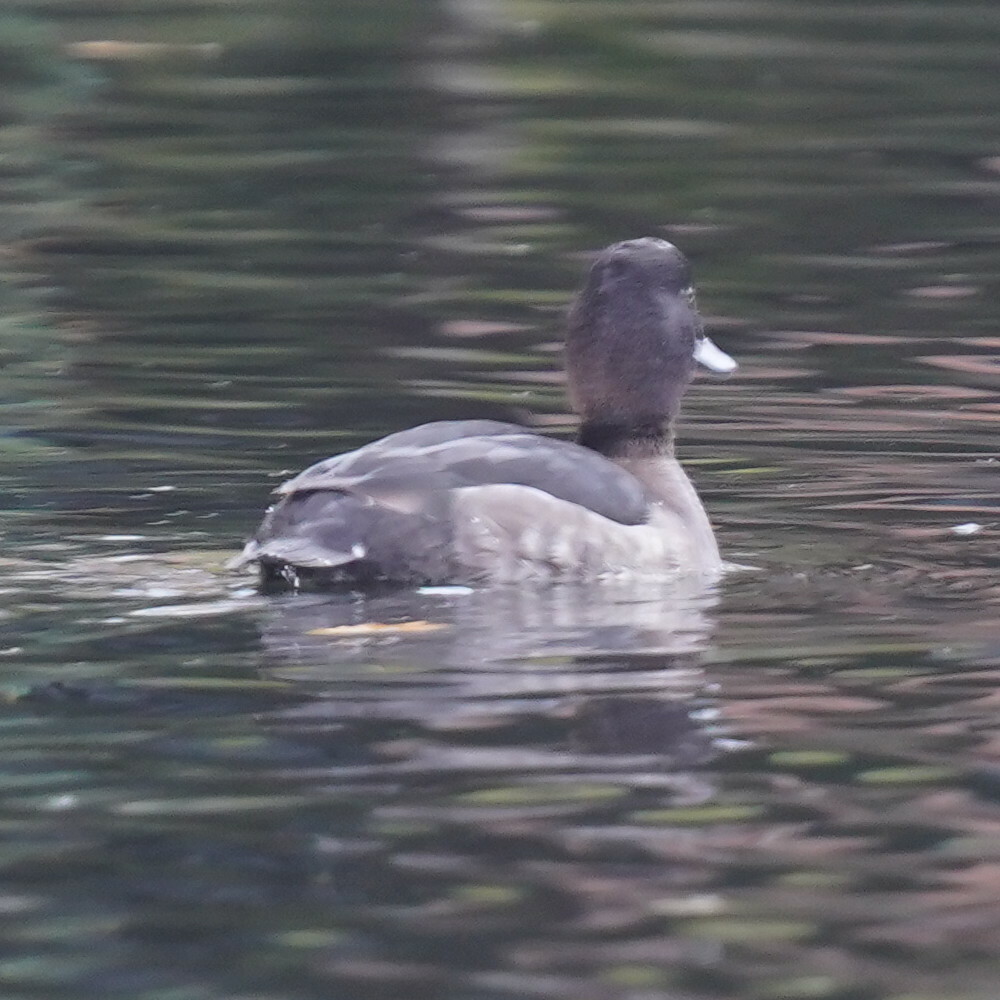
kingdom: Animalia
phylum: Chordata
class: Aves
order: Anseriformes
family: Anatidae
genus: Aythya
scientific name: Aythya fuligula
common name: Tufted duck
